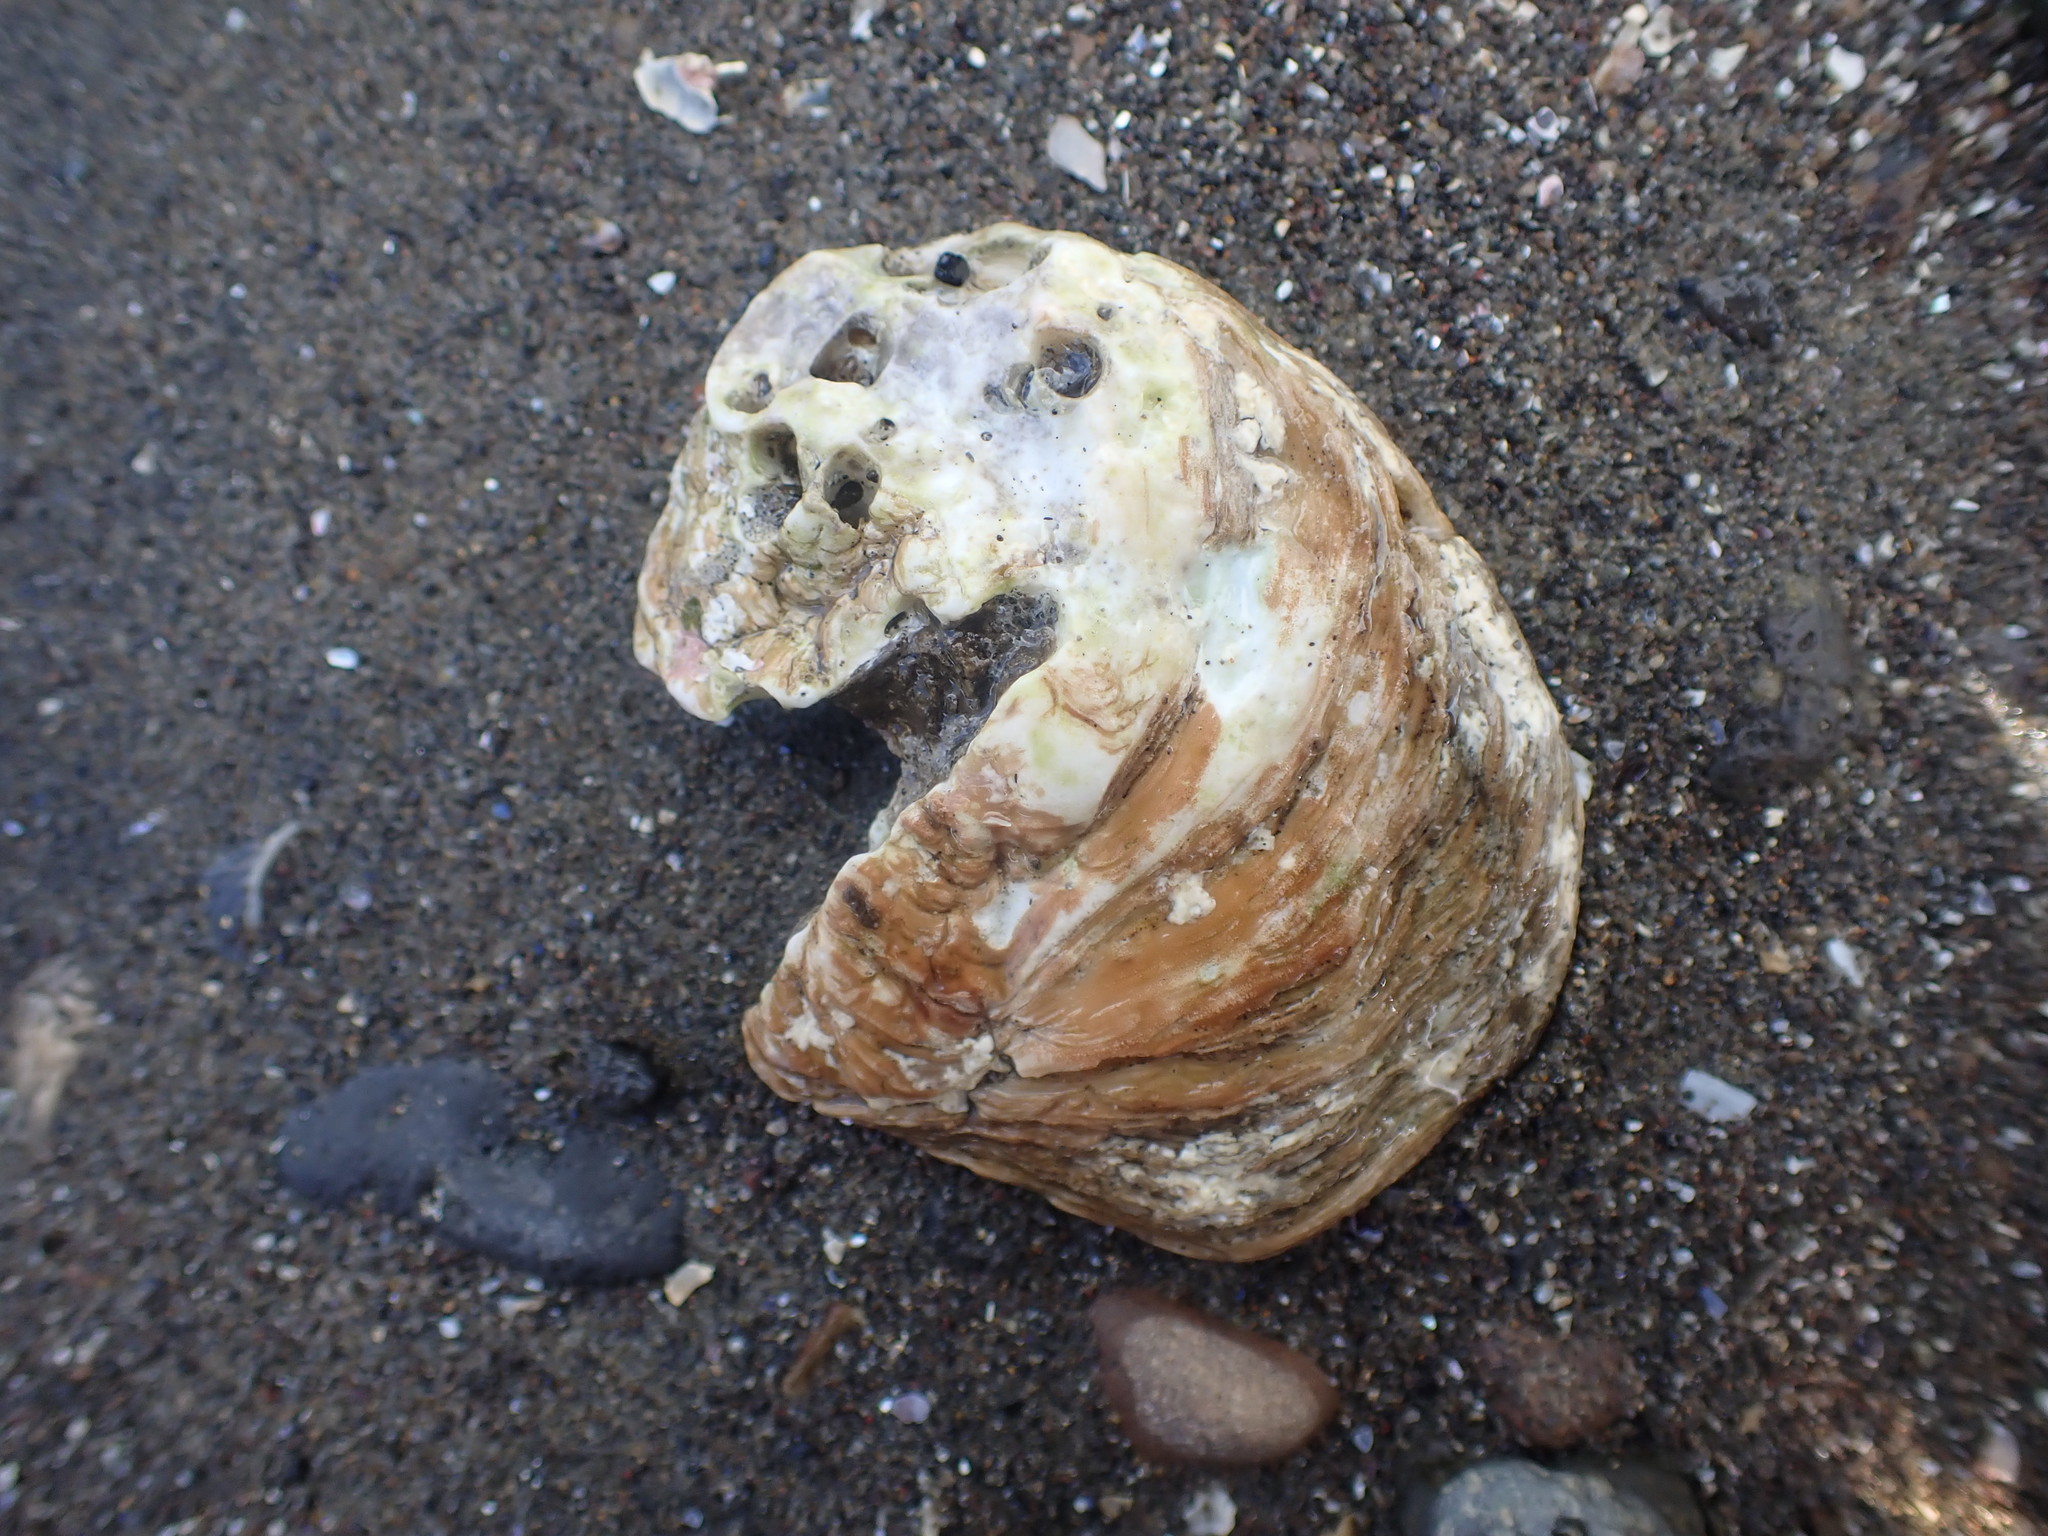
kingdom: Animalia
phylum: Mollusca
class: Bivalvia
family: Cleidothaeridae
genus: Cleidothaerus
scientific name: Cleidothaerus albidus
